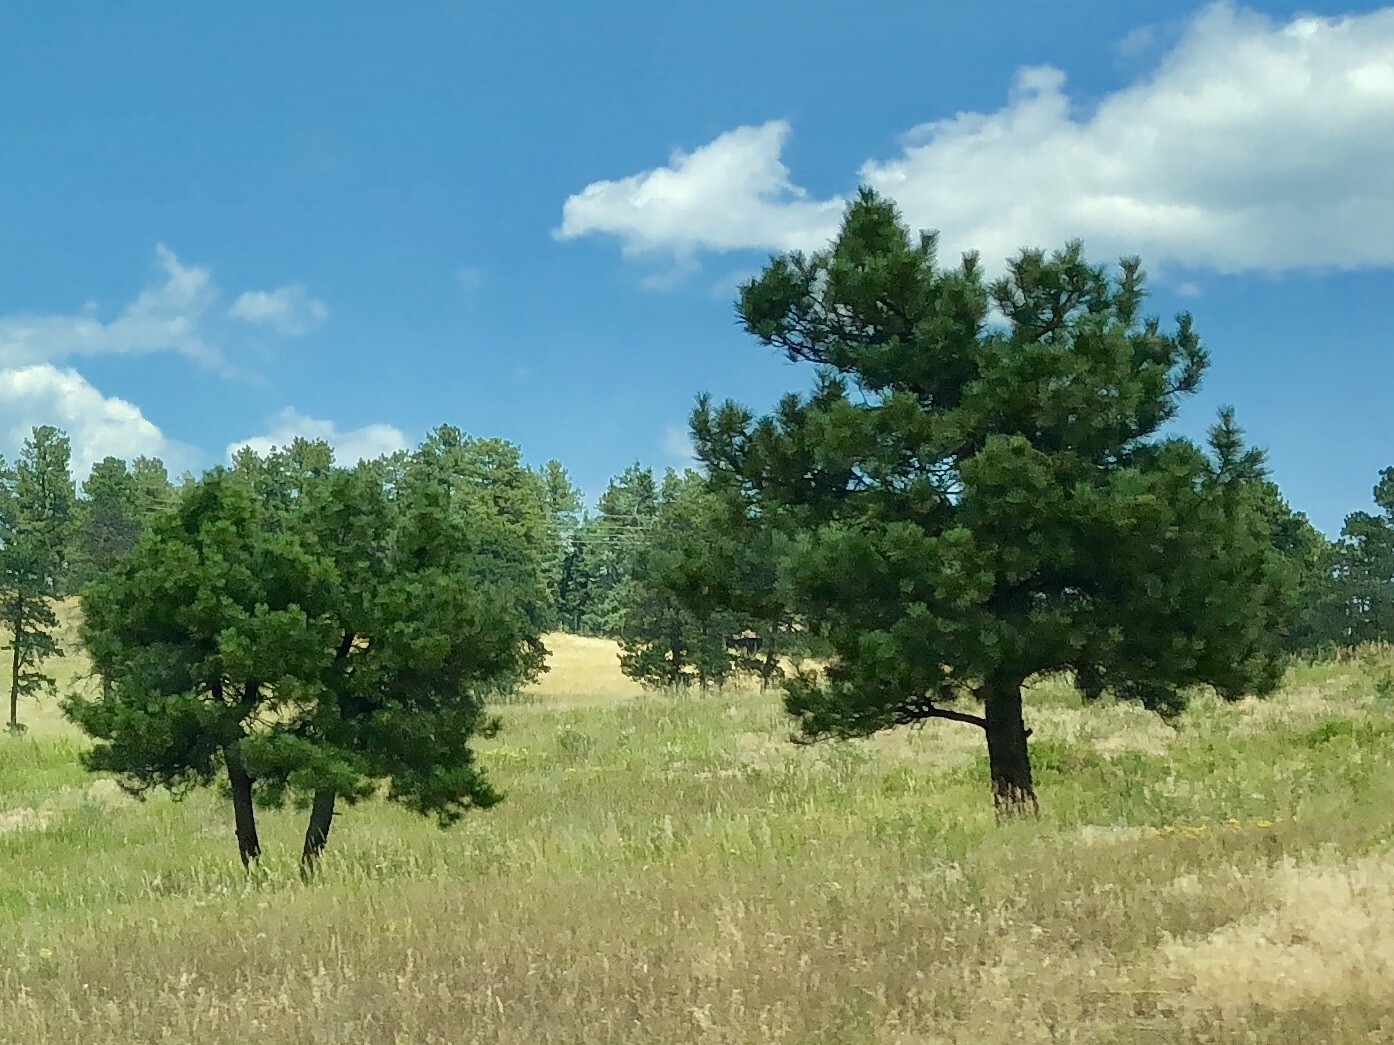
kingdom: Plantae
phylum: Tracheophyta
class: Pinopsida
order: Pinales
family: Pinaceae
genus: Pinus
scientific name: Pinus ponderosa
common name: Western yellow-pine
